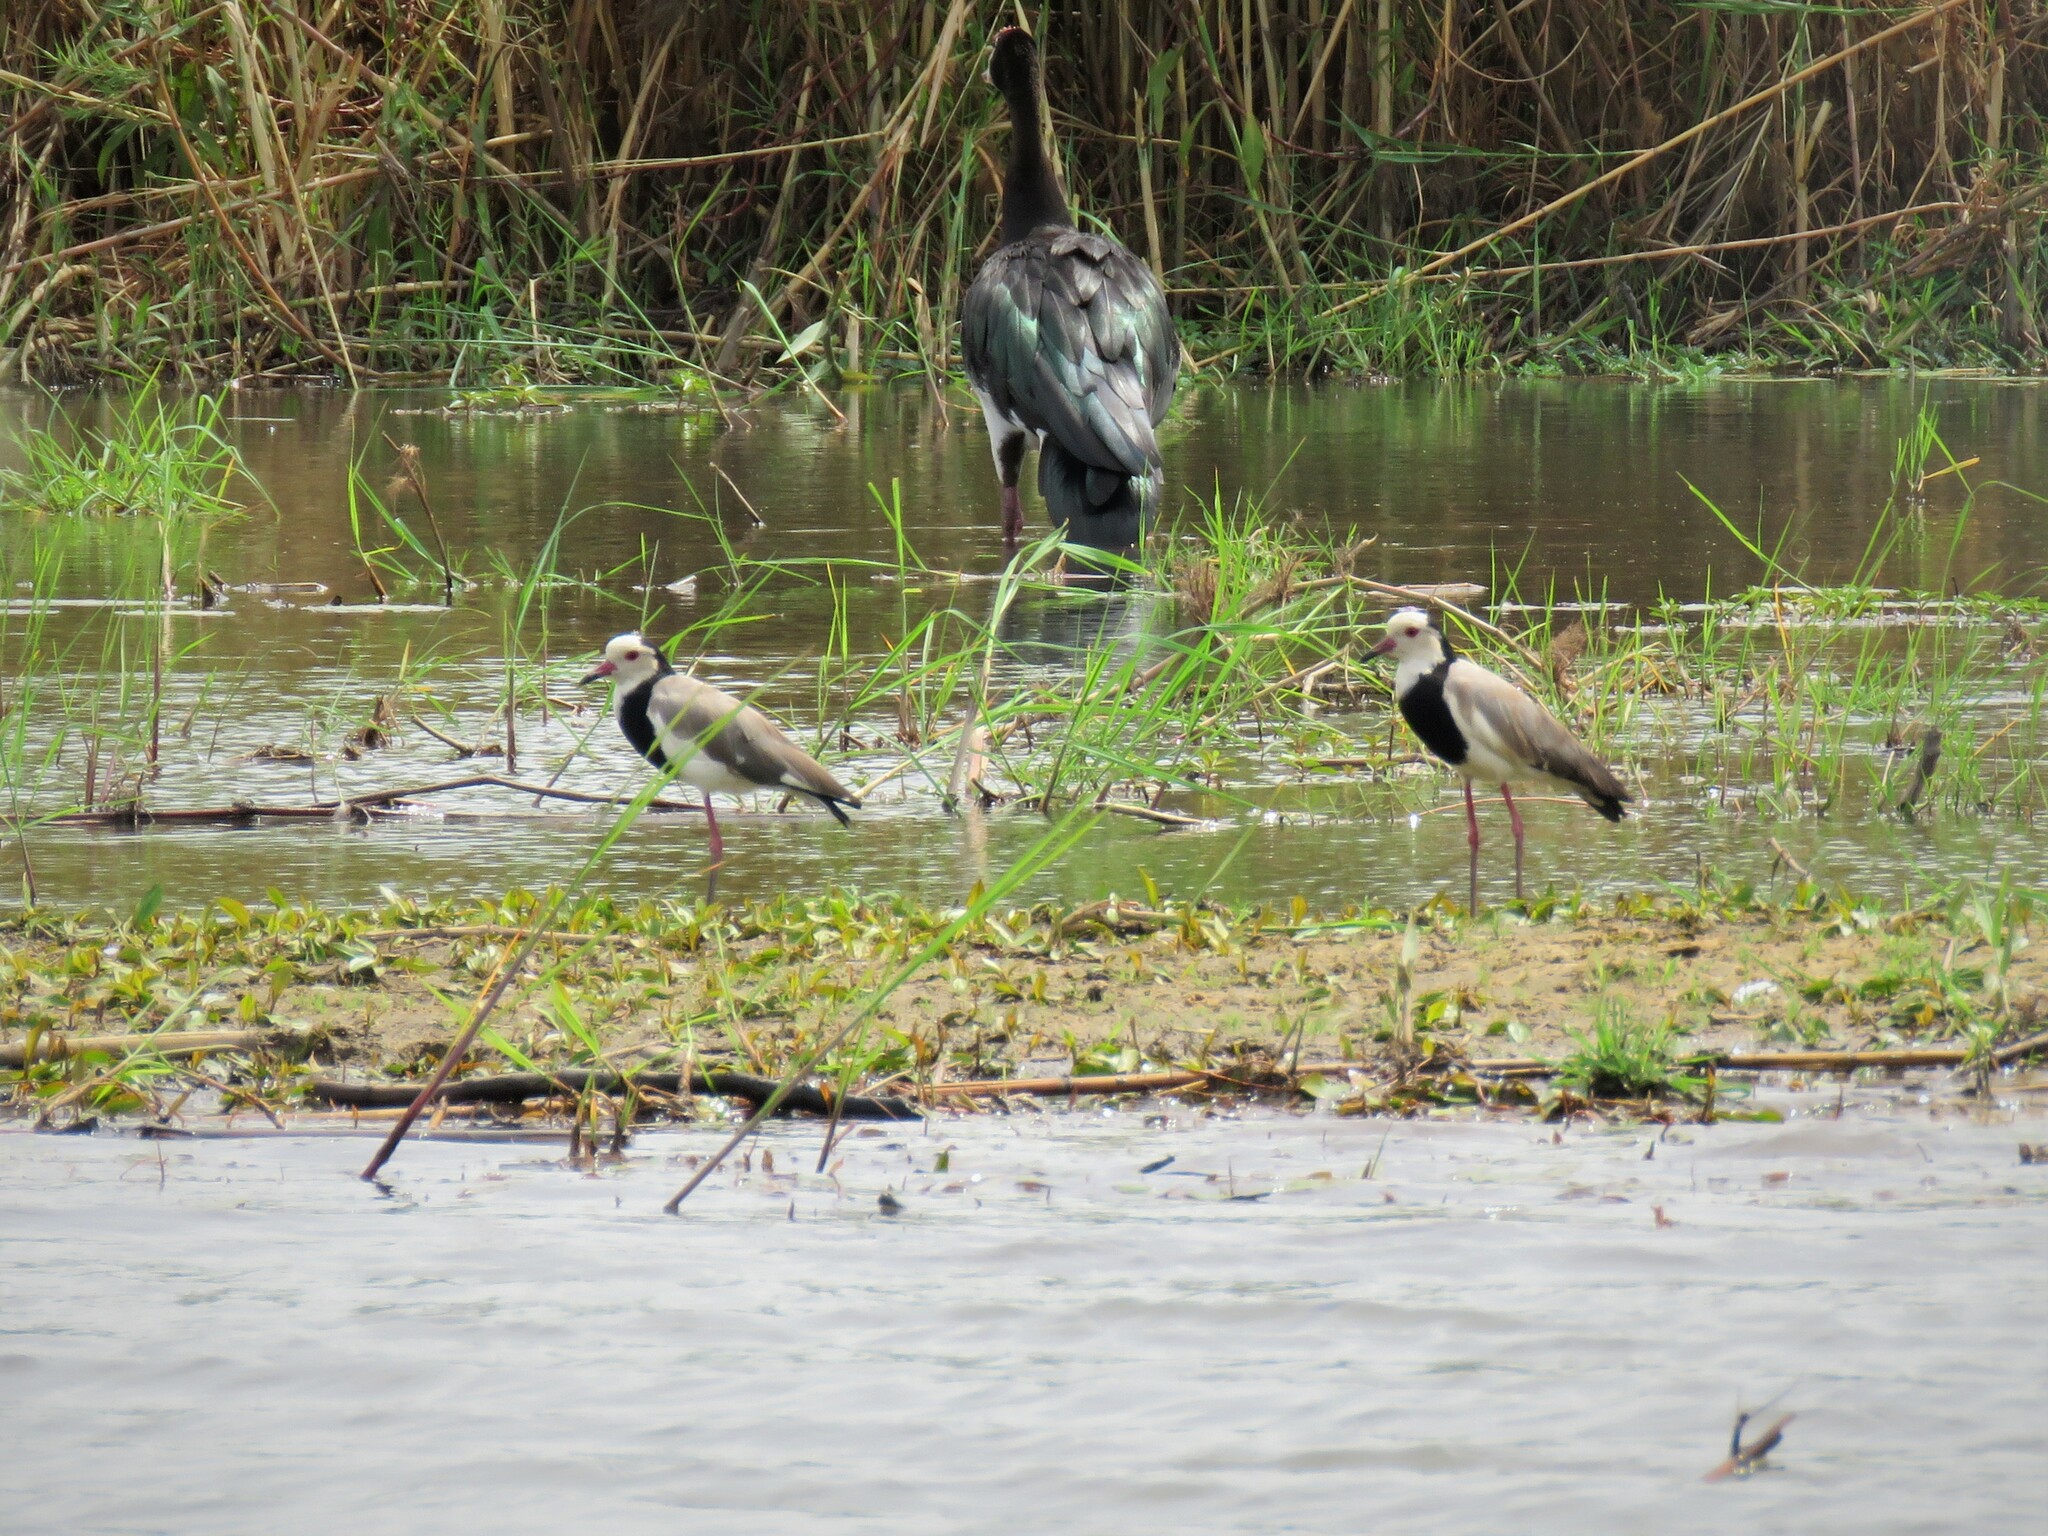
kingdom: Animalia
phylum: Chordata
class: Aves
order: Charadriiformes
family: Charadriidae
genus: Vanellus
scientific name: Vanellus crassirostris
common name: Long-toed lapwing
